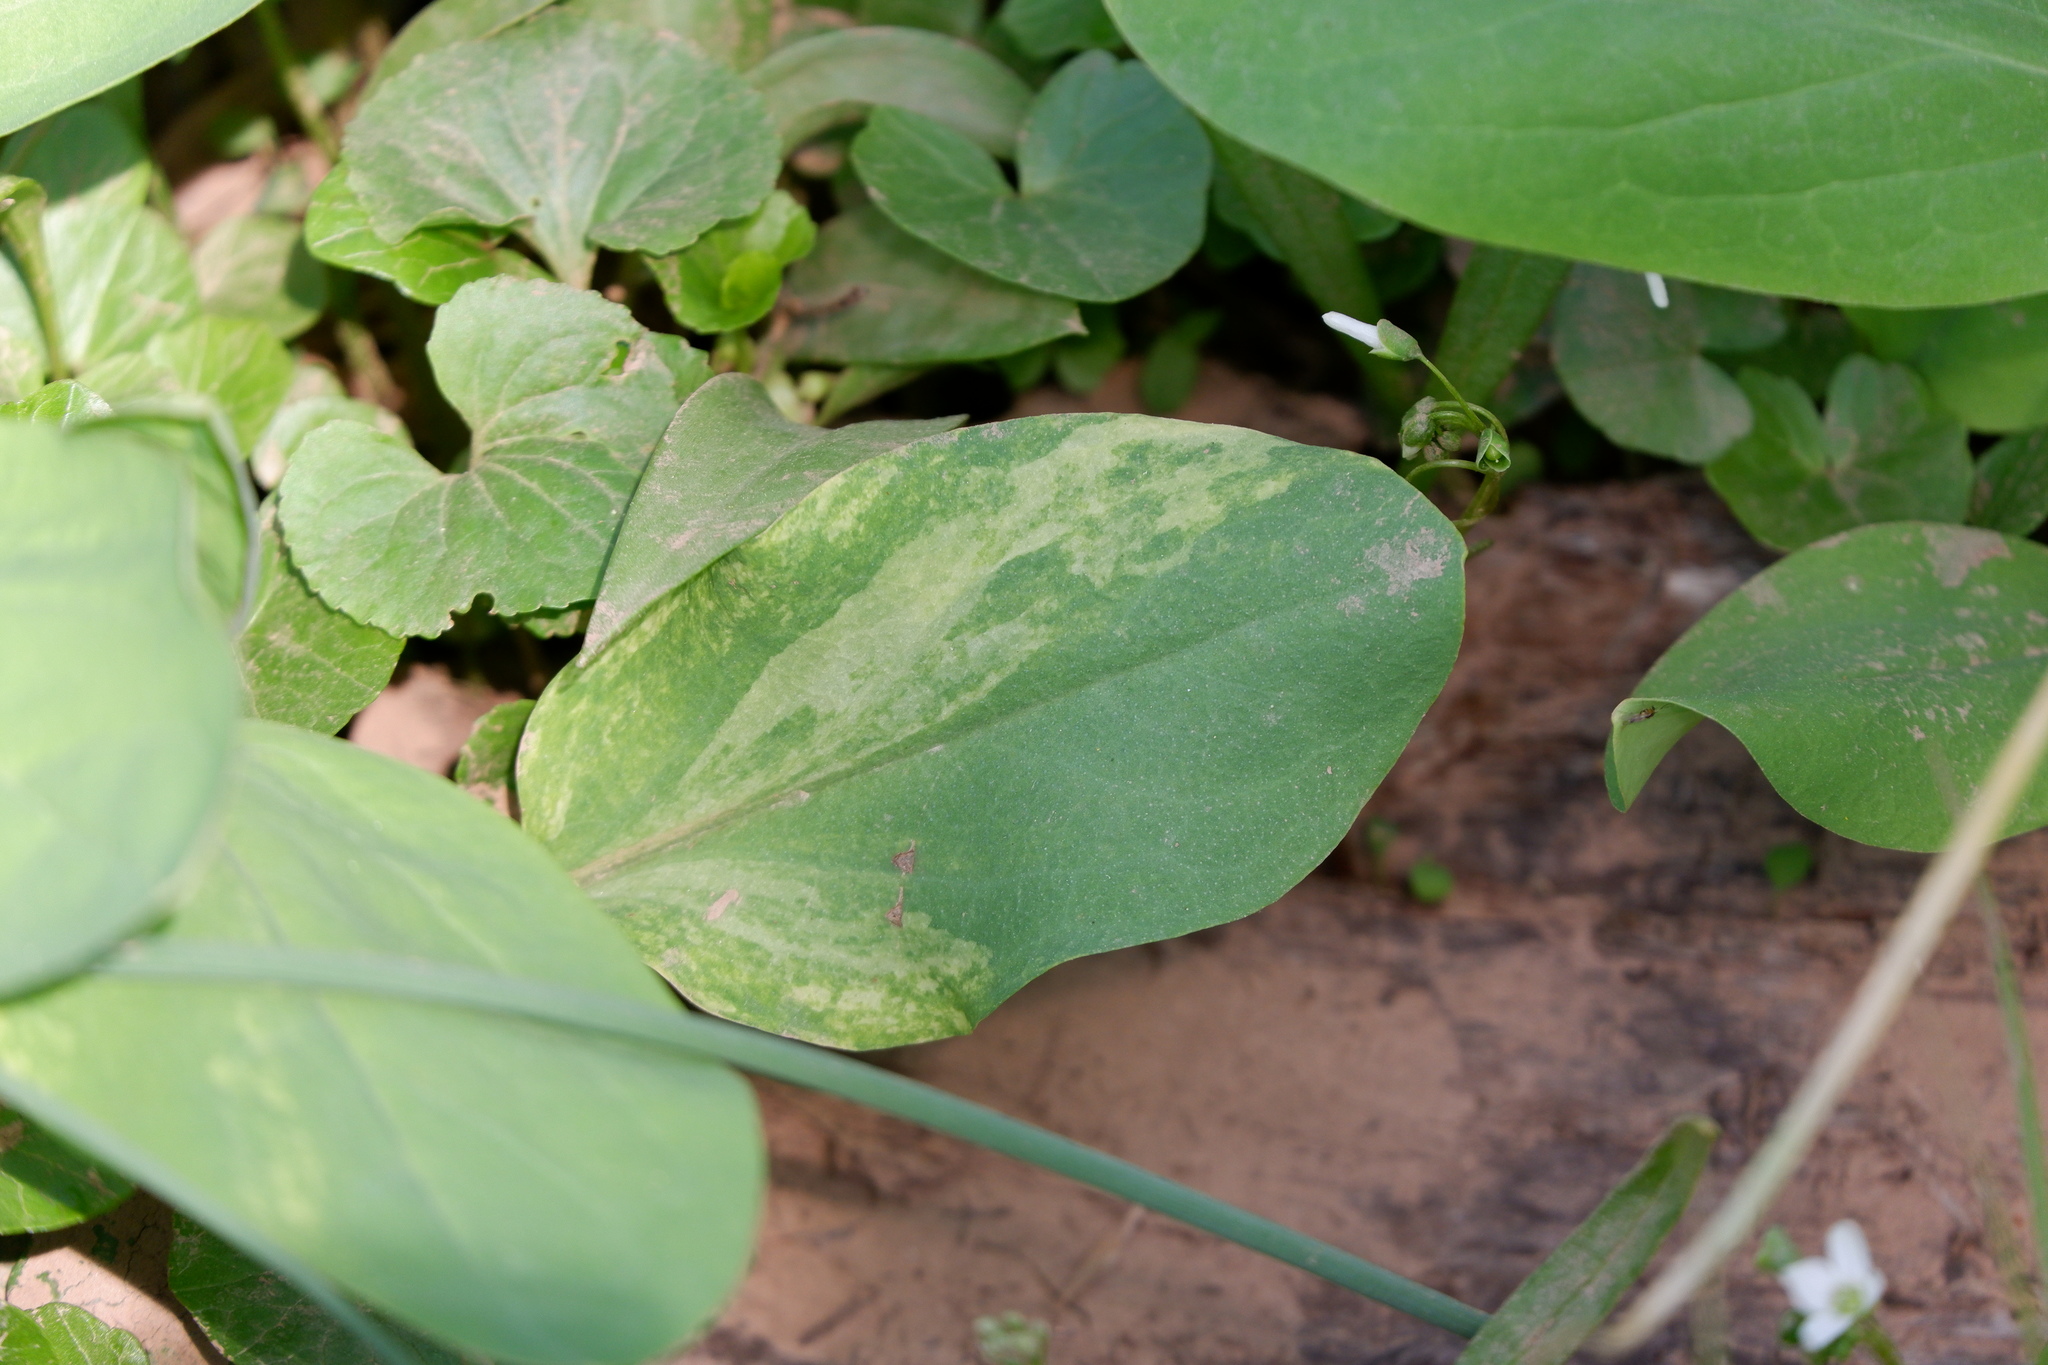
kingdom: Plantae
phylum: Tracheophyta
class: Magnoliopsida
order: Boraginales
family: Boraginaceae
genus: Mertensia
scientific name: Mertensia virginica
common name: Virginia bluebells
